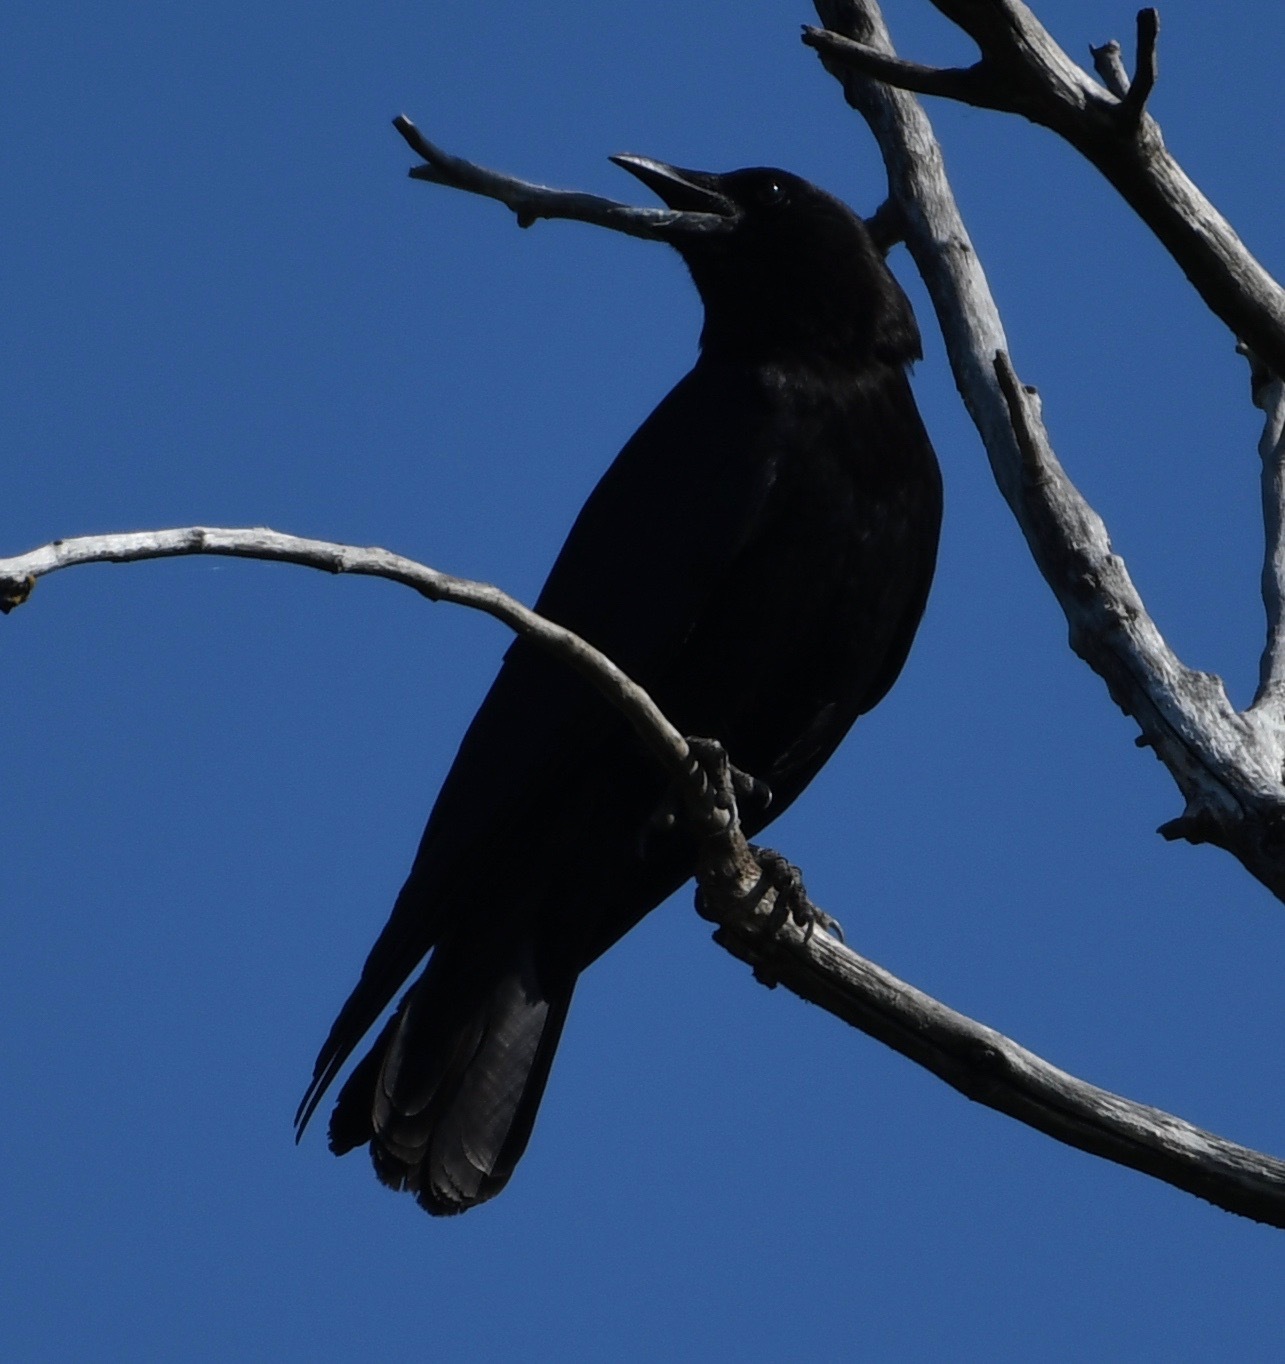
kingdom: Animalia
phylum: Chordata
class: Aves
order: Passeriformes
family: Corvidae
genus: Corvus
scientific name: Corvus brachyrhynchos
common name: American crow
